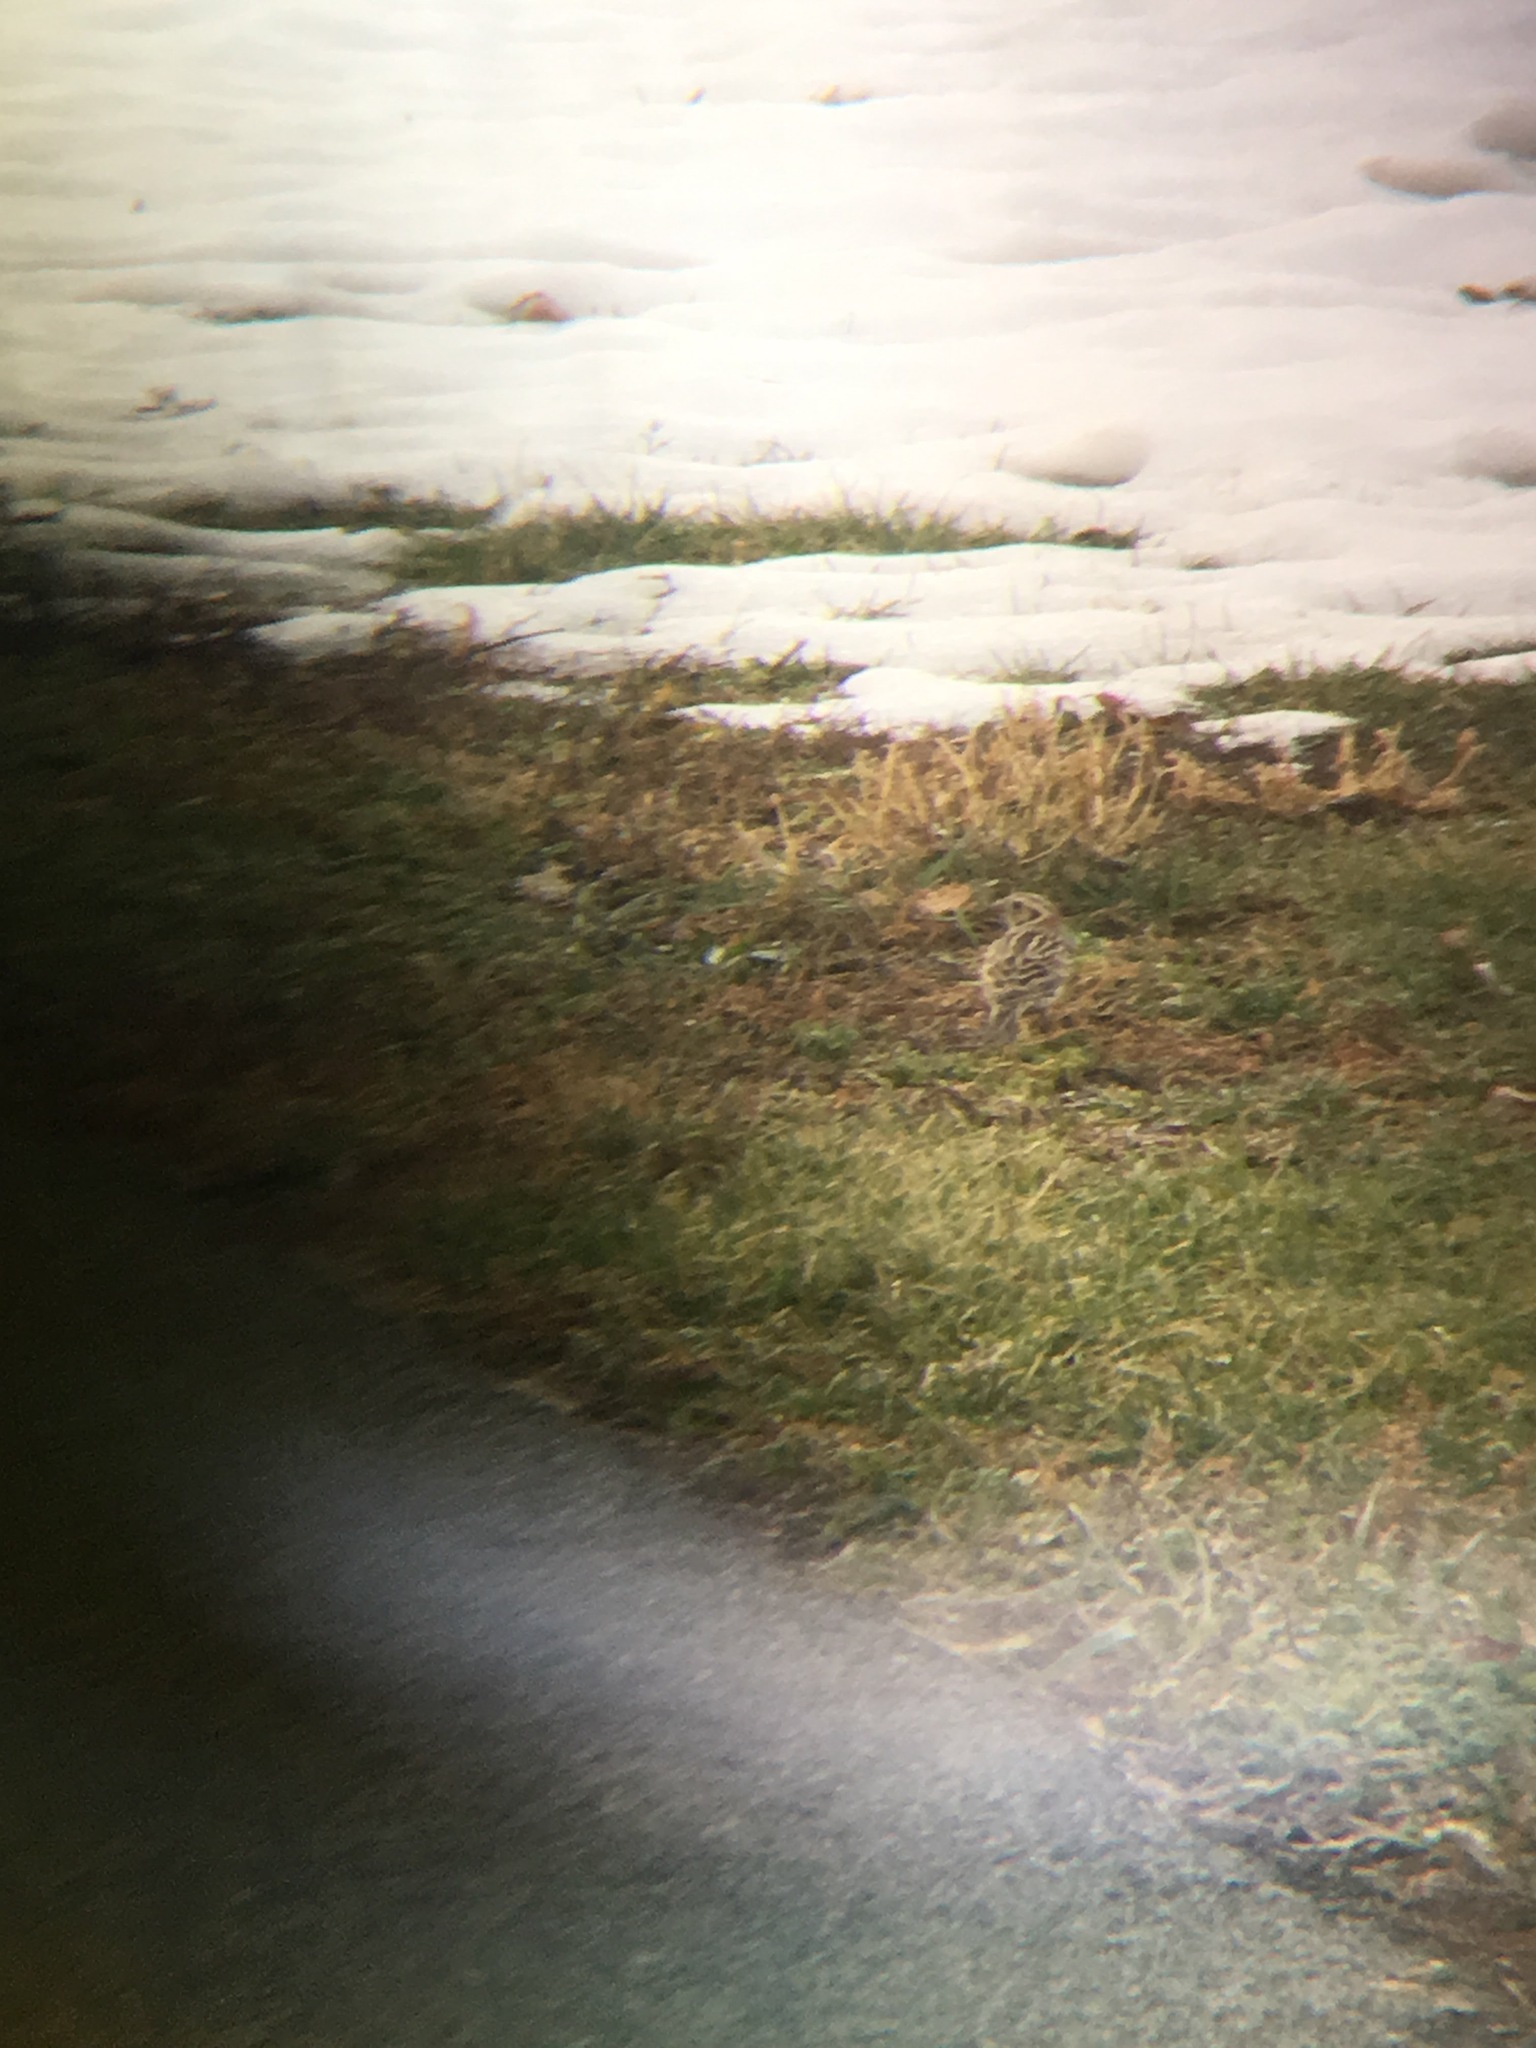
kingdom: Animalia
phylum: Chordata
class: Aves
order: Passeriformes
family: Calcariidae
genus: Calcarius
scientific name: Calcarius lapponicus
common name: Lapland longspur
